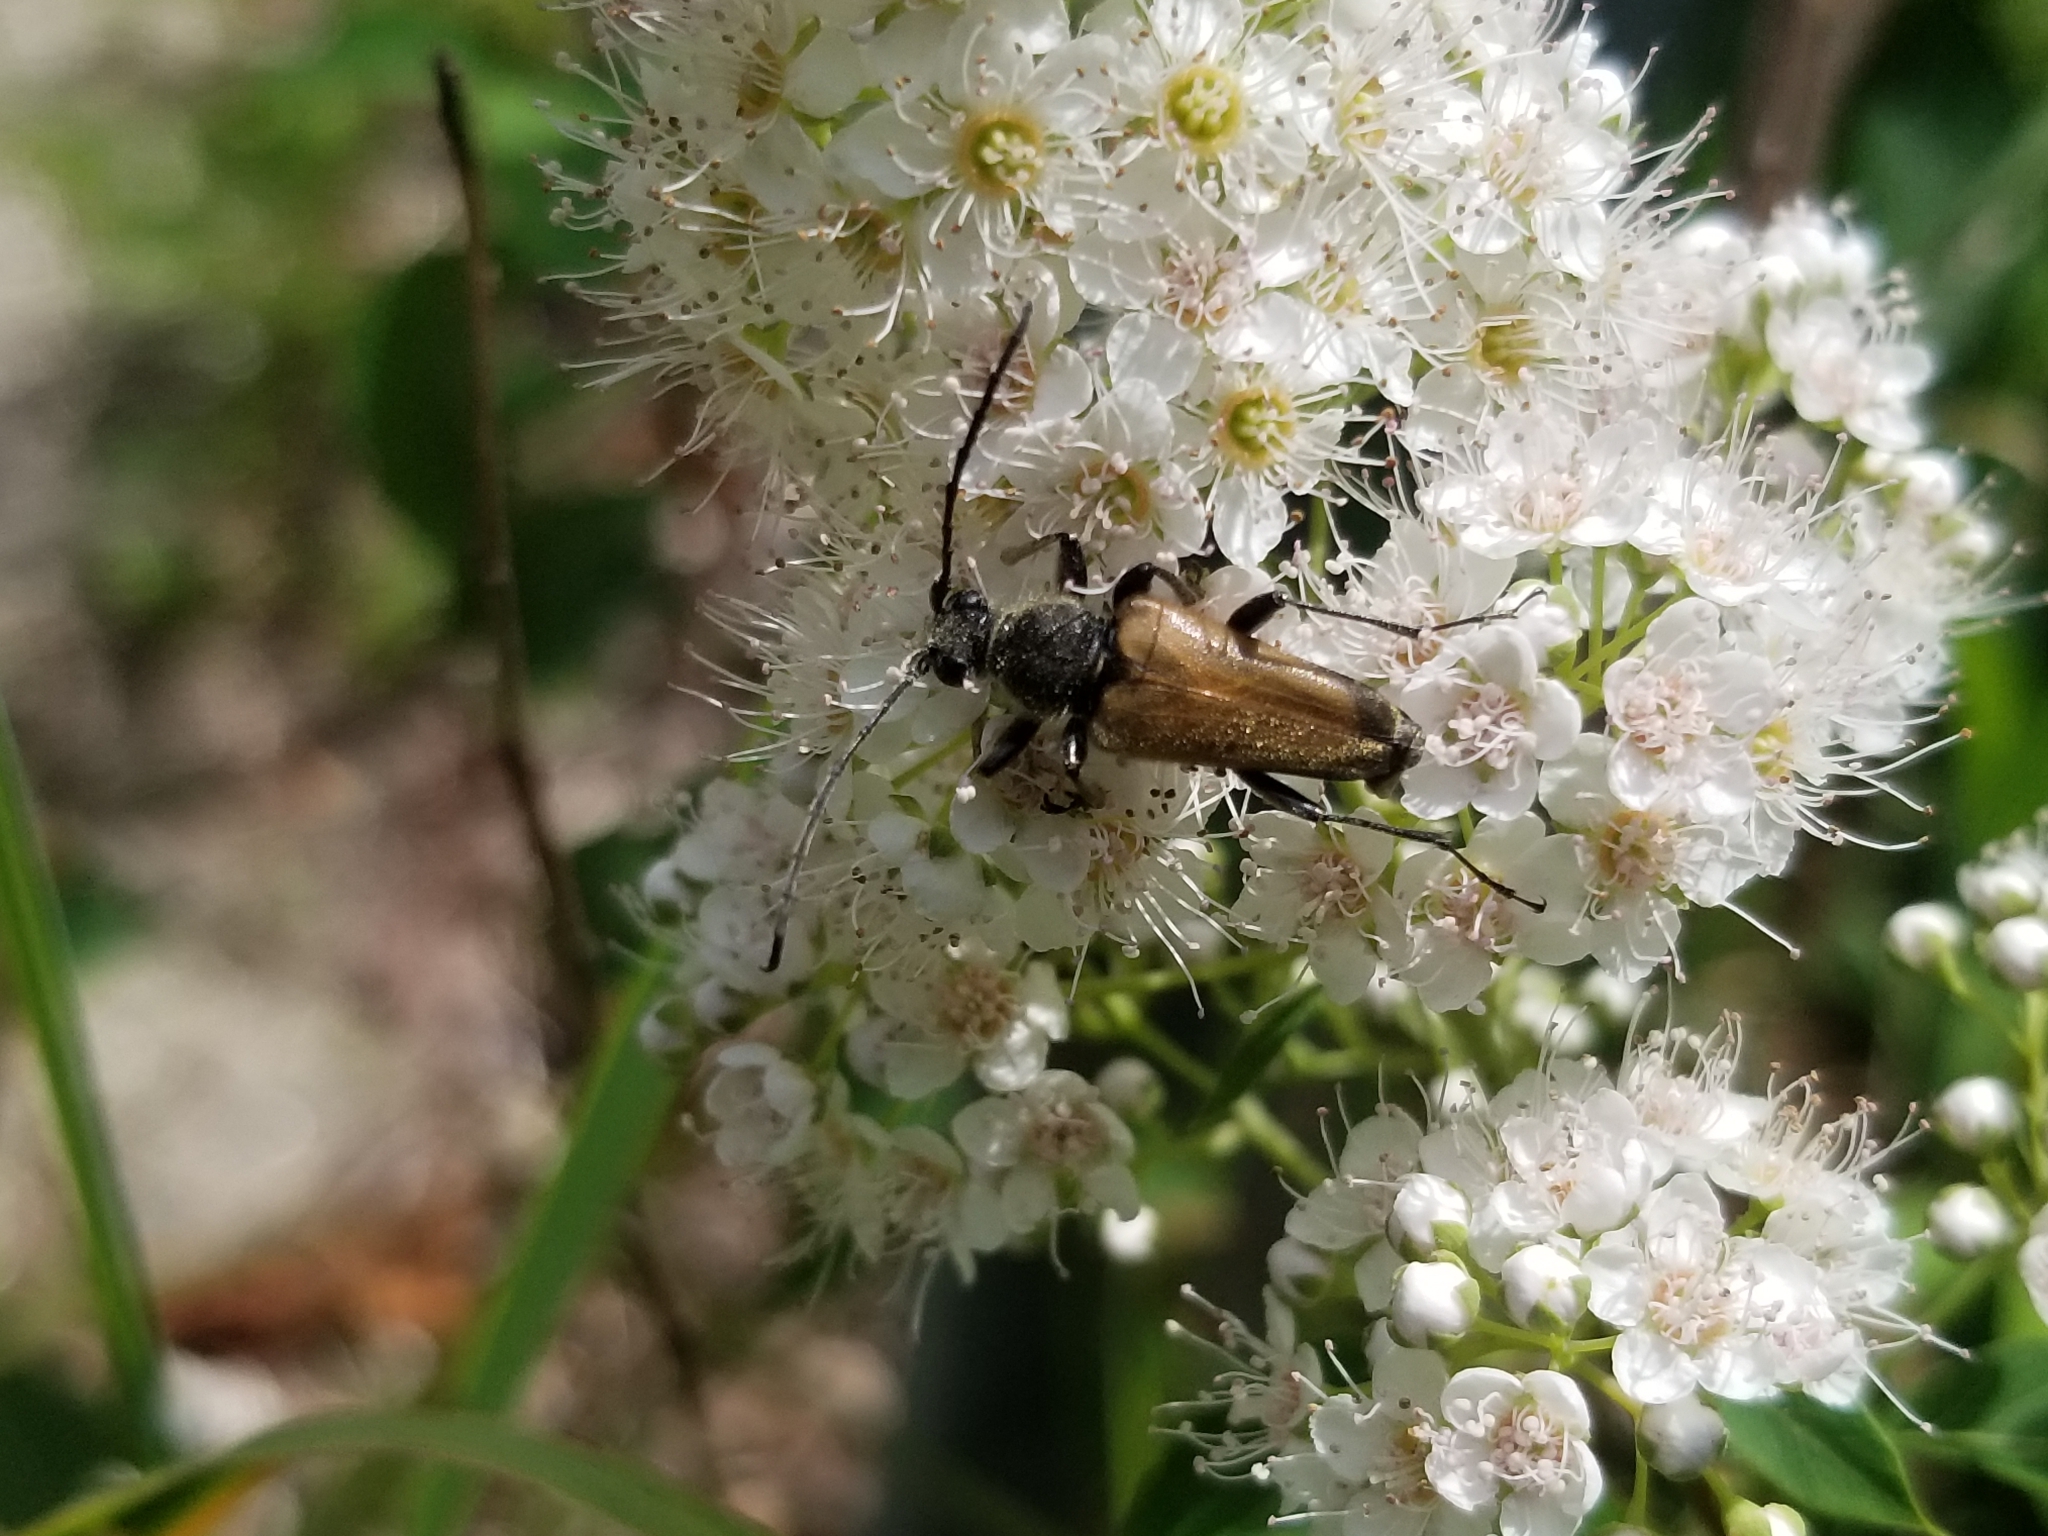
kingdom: Animalia
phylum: Arthropoda
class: Insecta
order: Coleoptera
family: Cerambycidae
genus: Strangalepta
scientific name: Strangalepta abbreviata
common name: Strangalepta flower longhorn beetle
